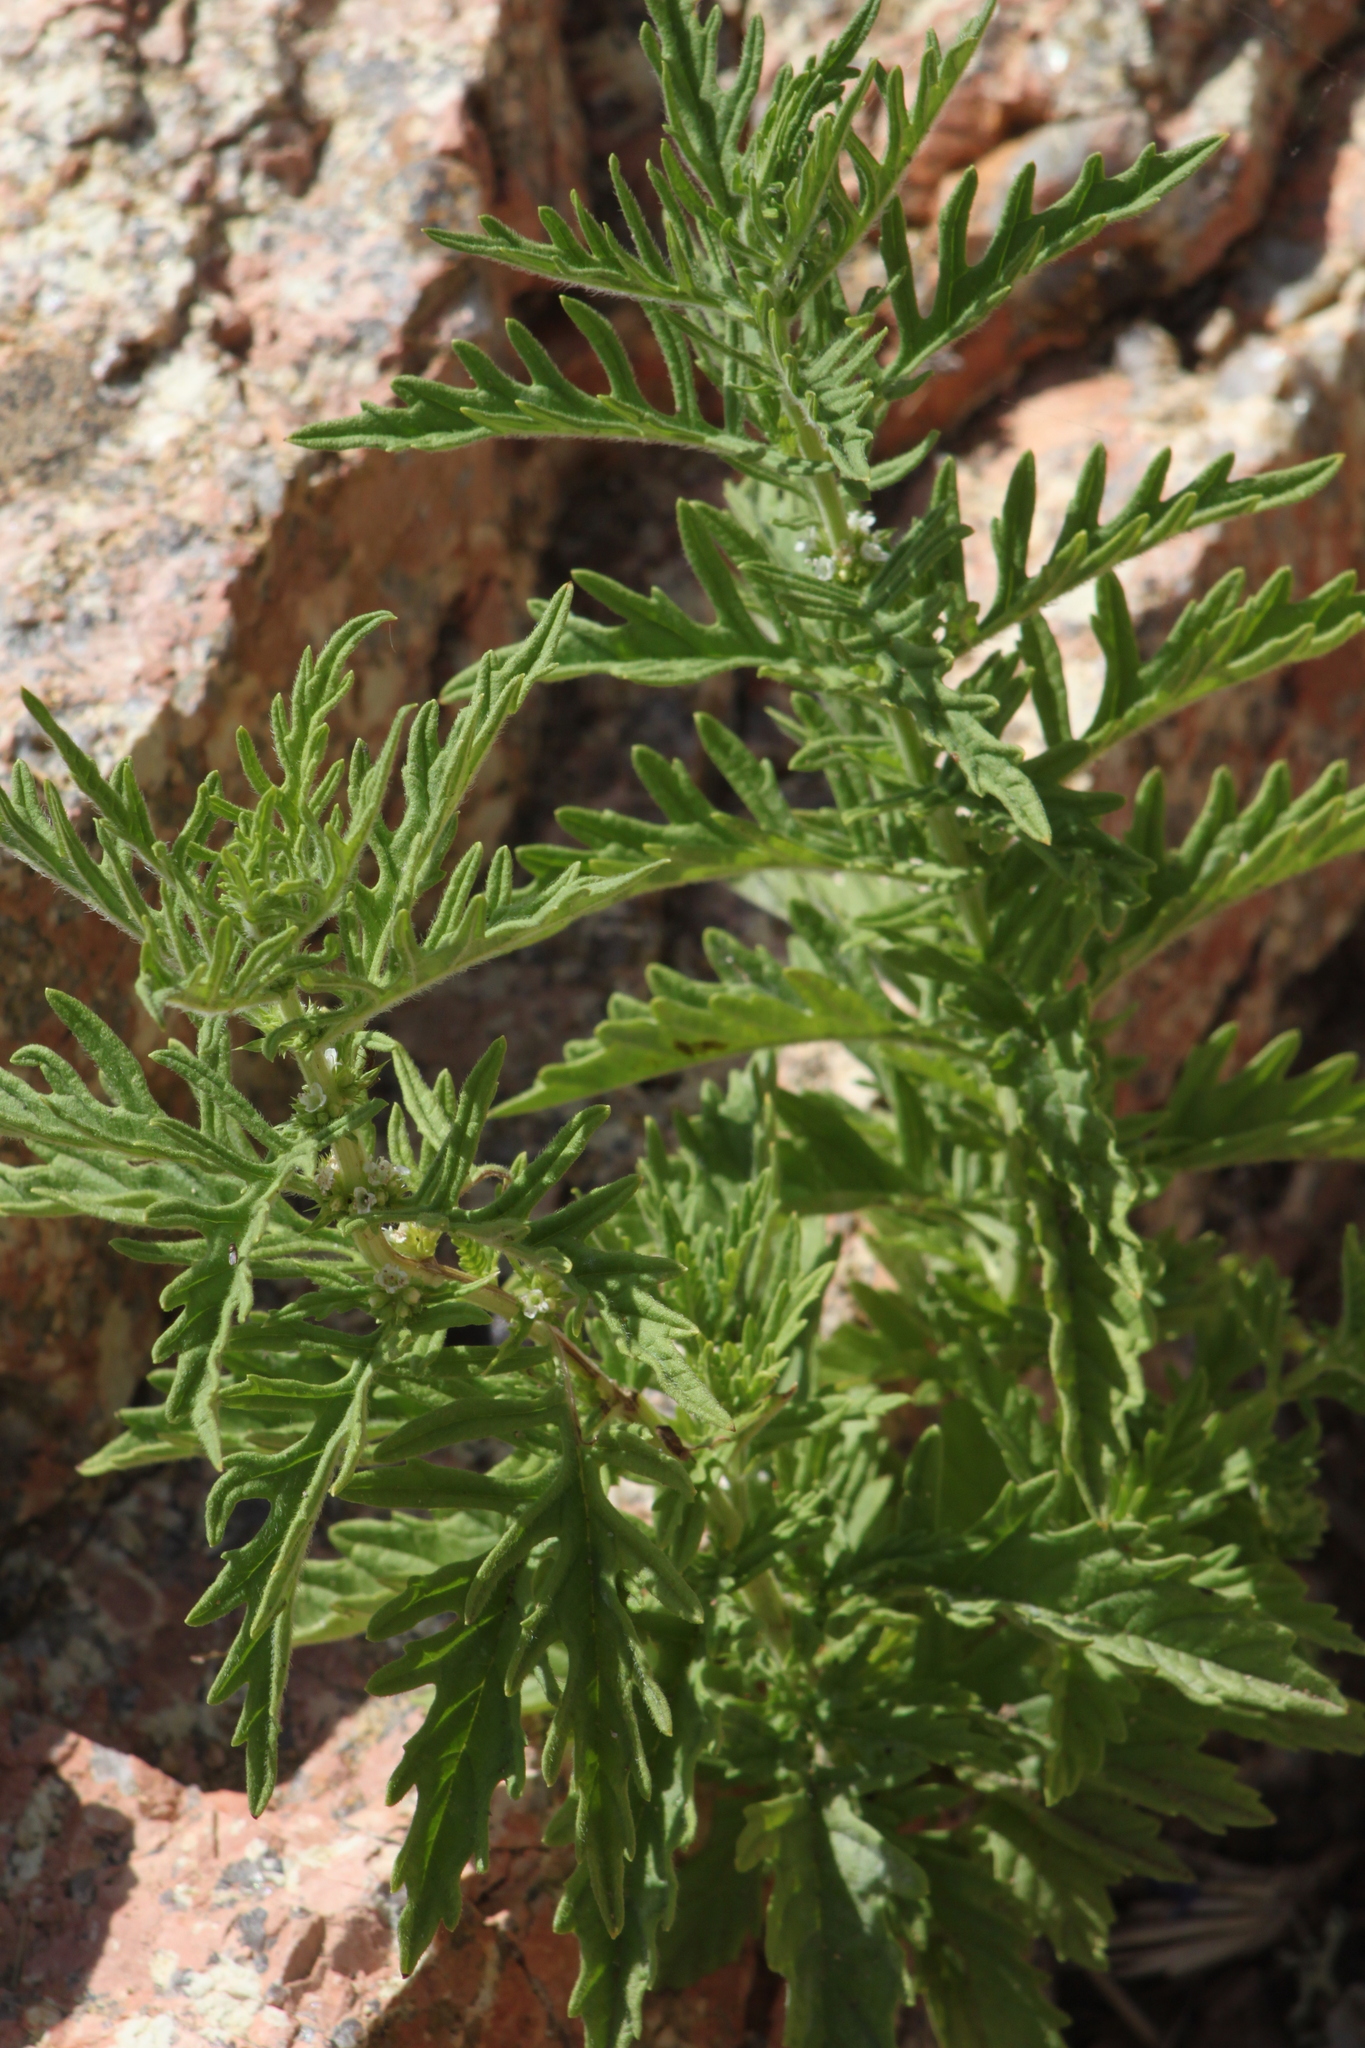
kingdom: Plantae
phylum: Tracheophyta
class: Magnoliopsida
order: Lamiales
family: Lamiaceae
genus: Lycopus
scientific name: Lycopus exaltatus
